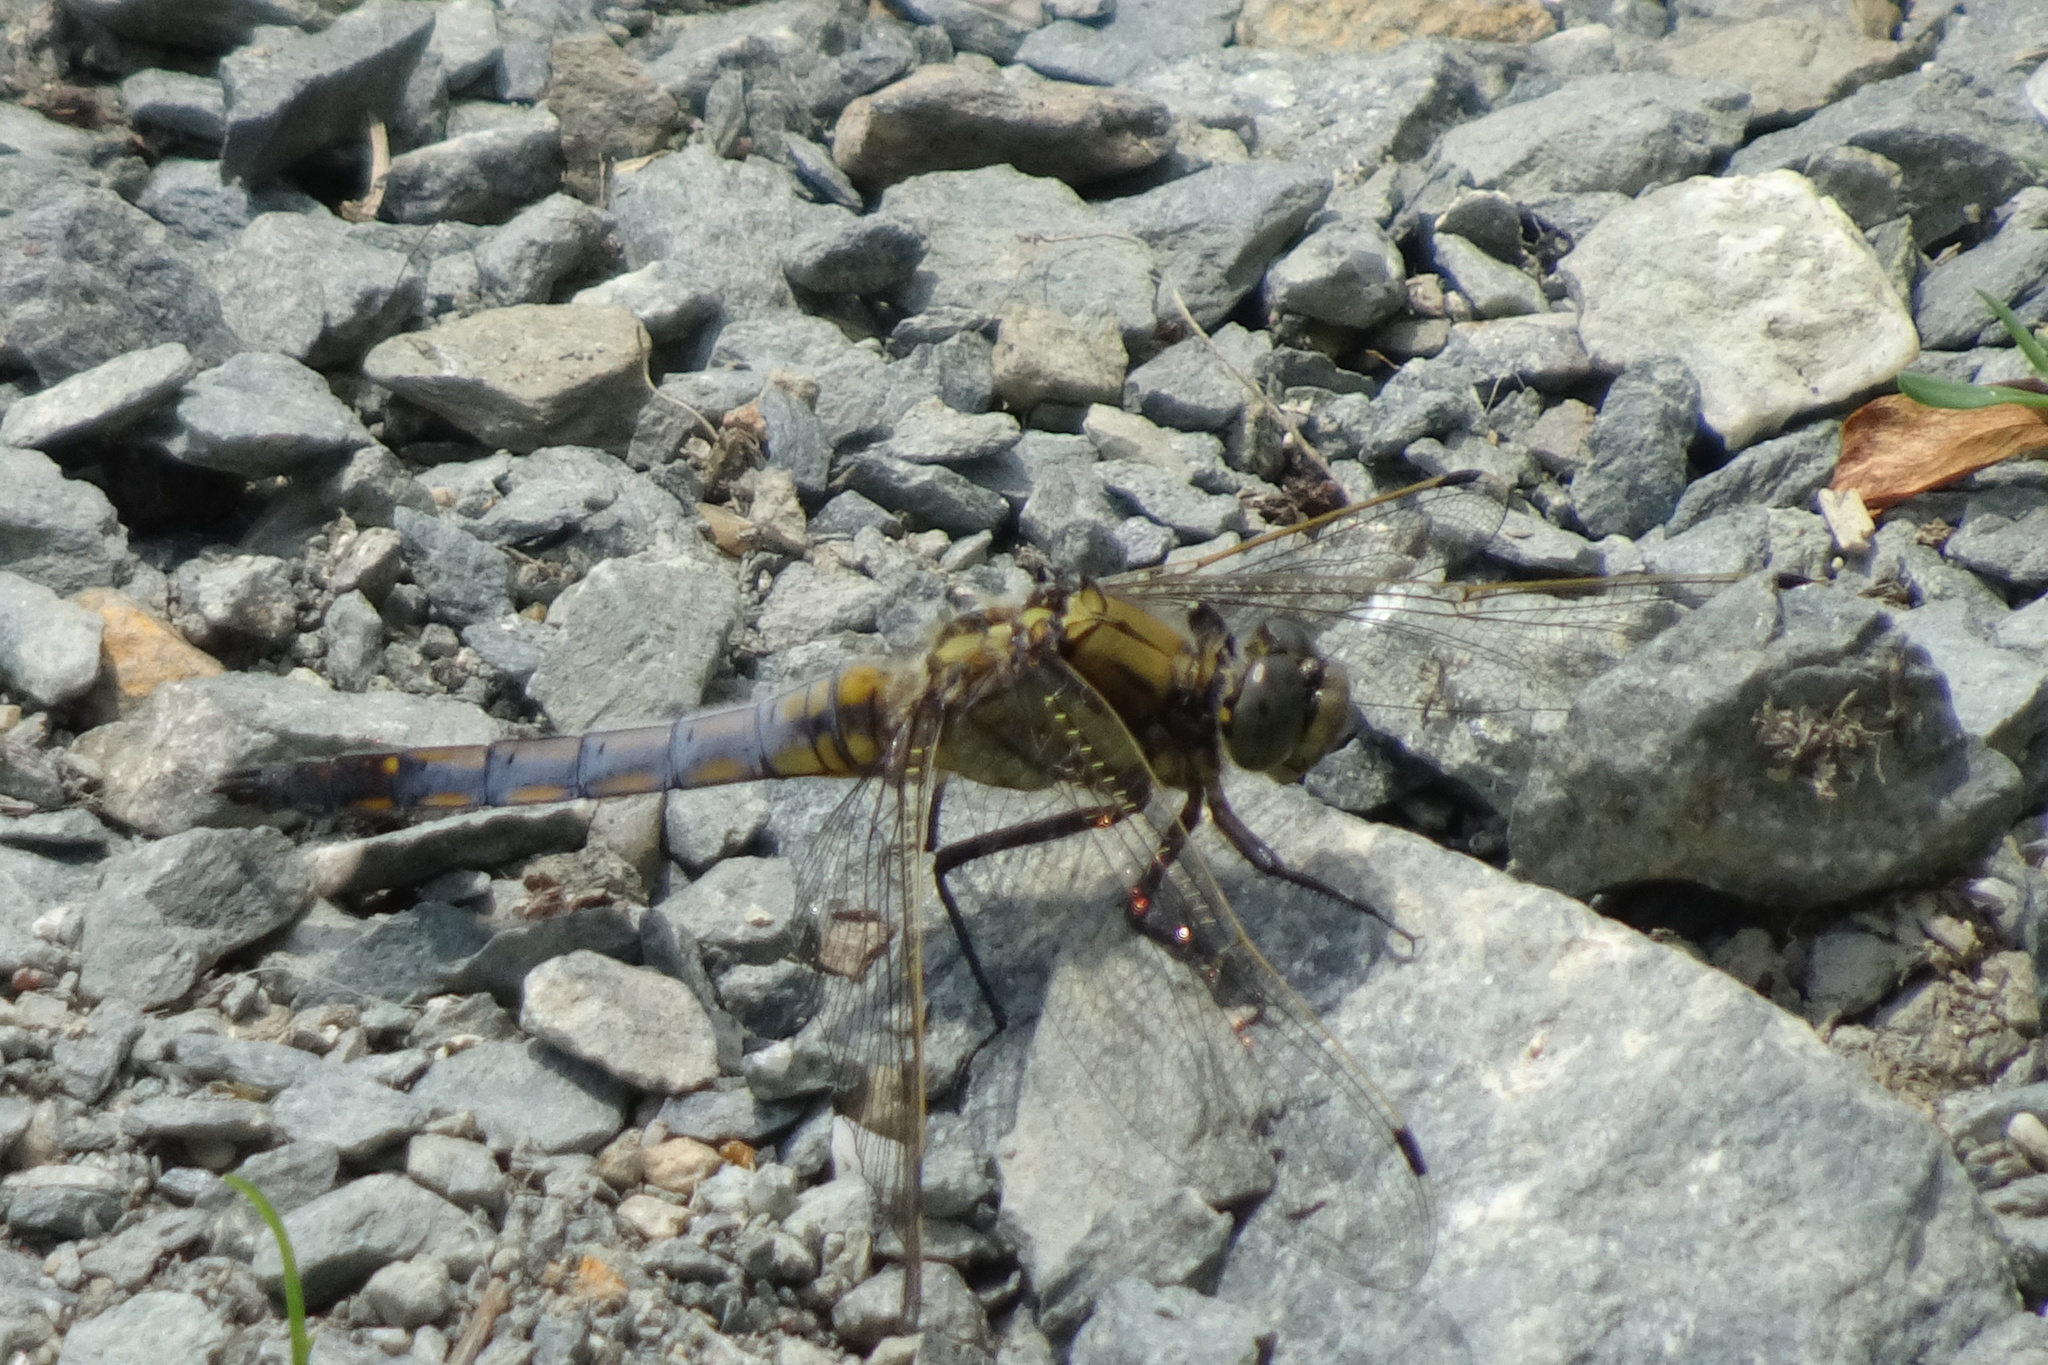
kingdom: Animalia
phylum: Arthropoda
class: Insecta
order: Odonata
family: Libellulidae
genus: Orthetrum
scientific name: Orthetrum cancellatum
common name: Black-tailed skimmer
